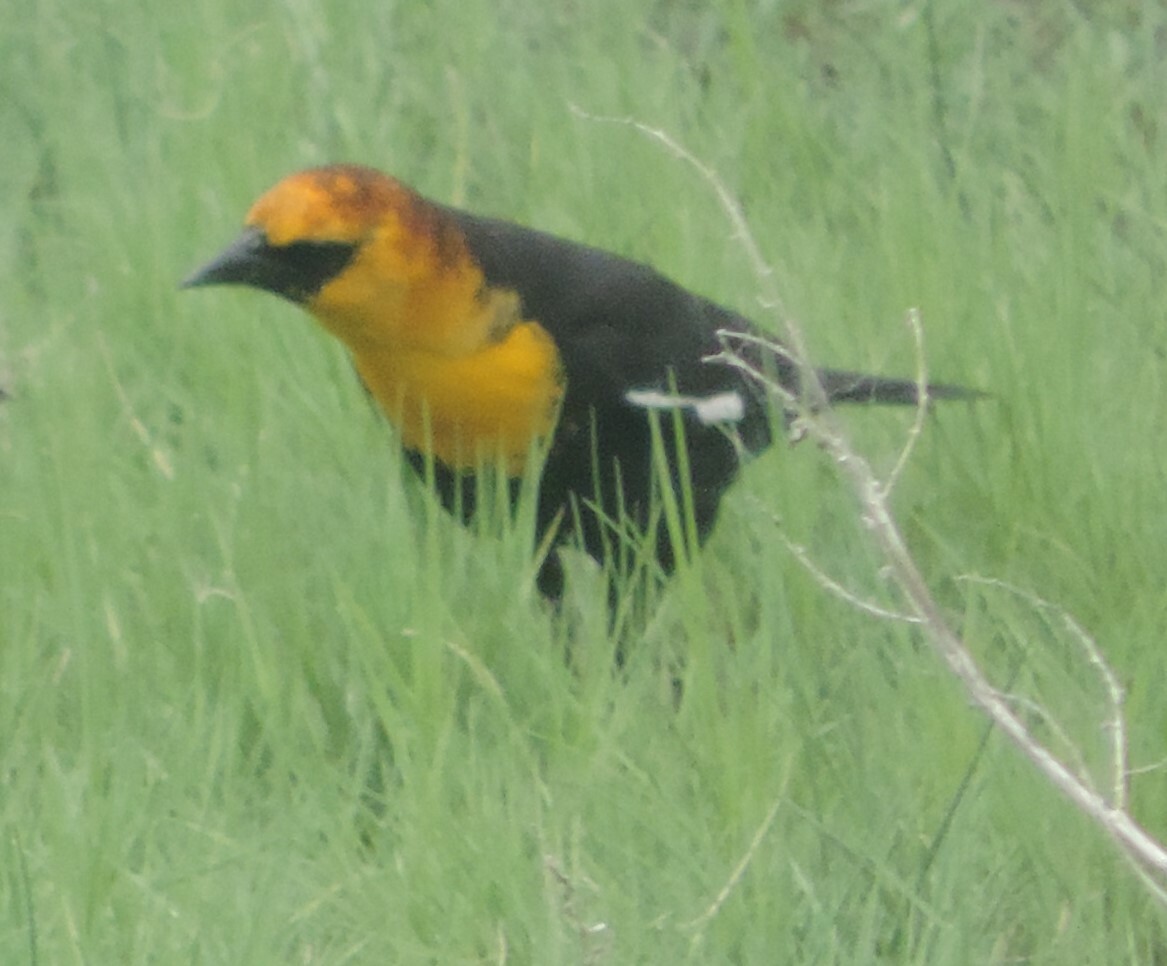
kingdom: Animalia
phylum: Chordata
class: Aves
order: Passeriformes
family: Icteridae
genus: Xanthocephalus
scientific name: Xanthocephalus xanthocephalus
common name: Yellow-headed blackbird
